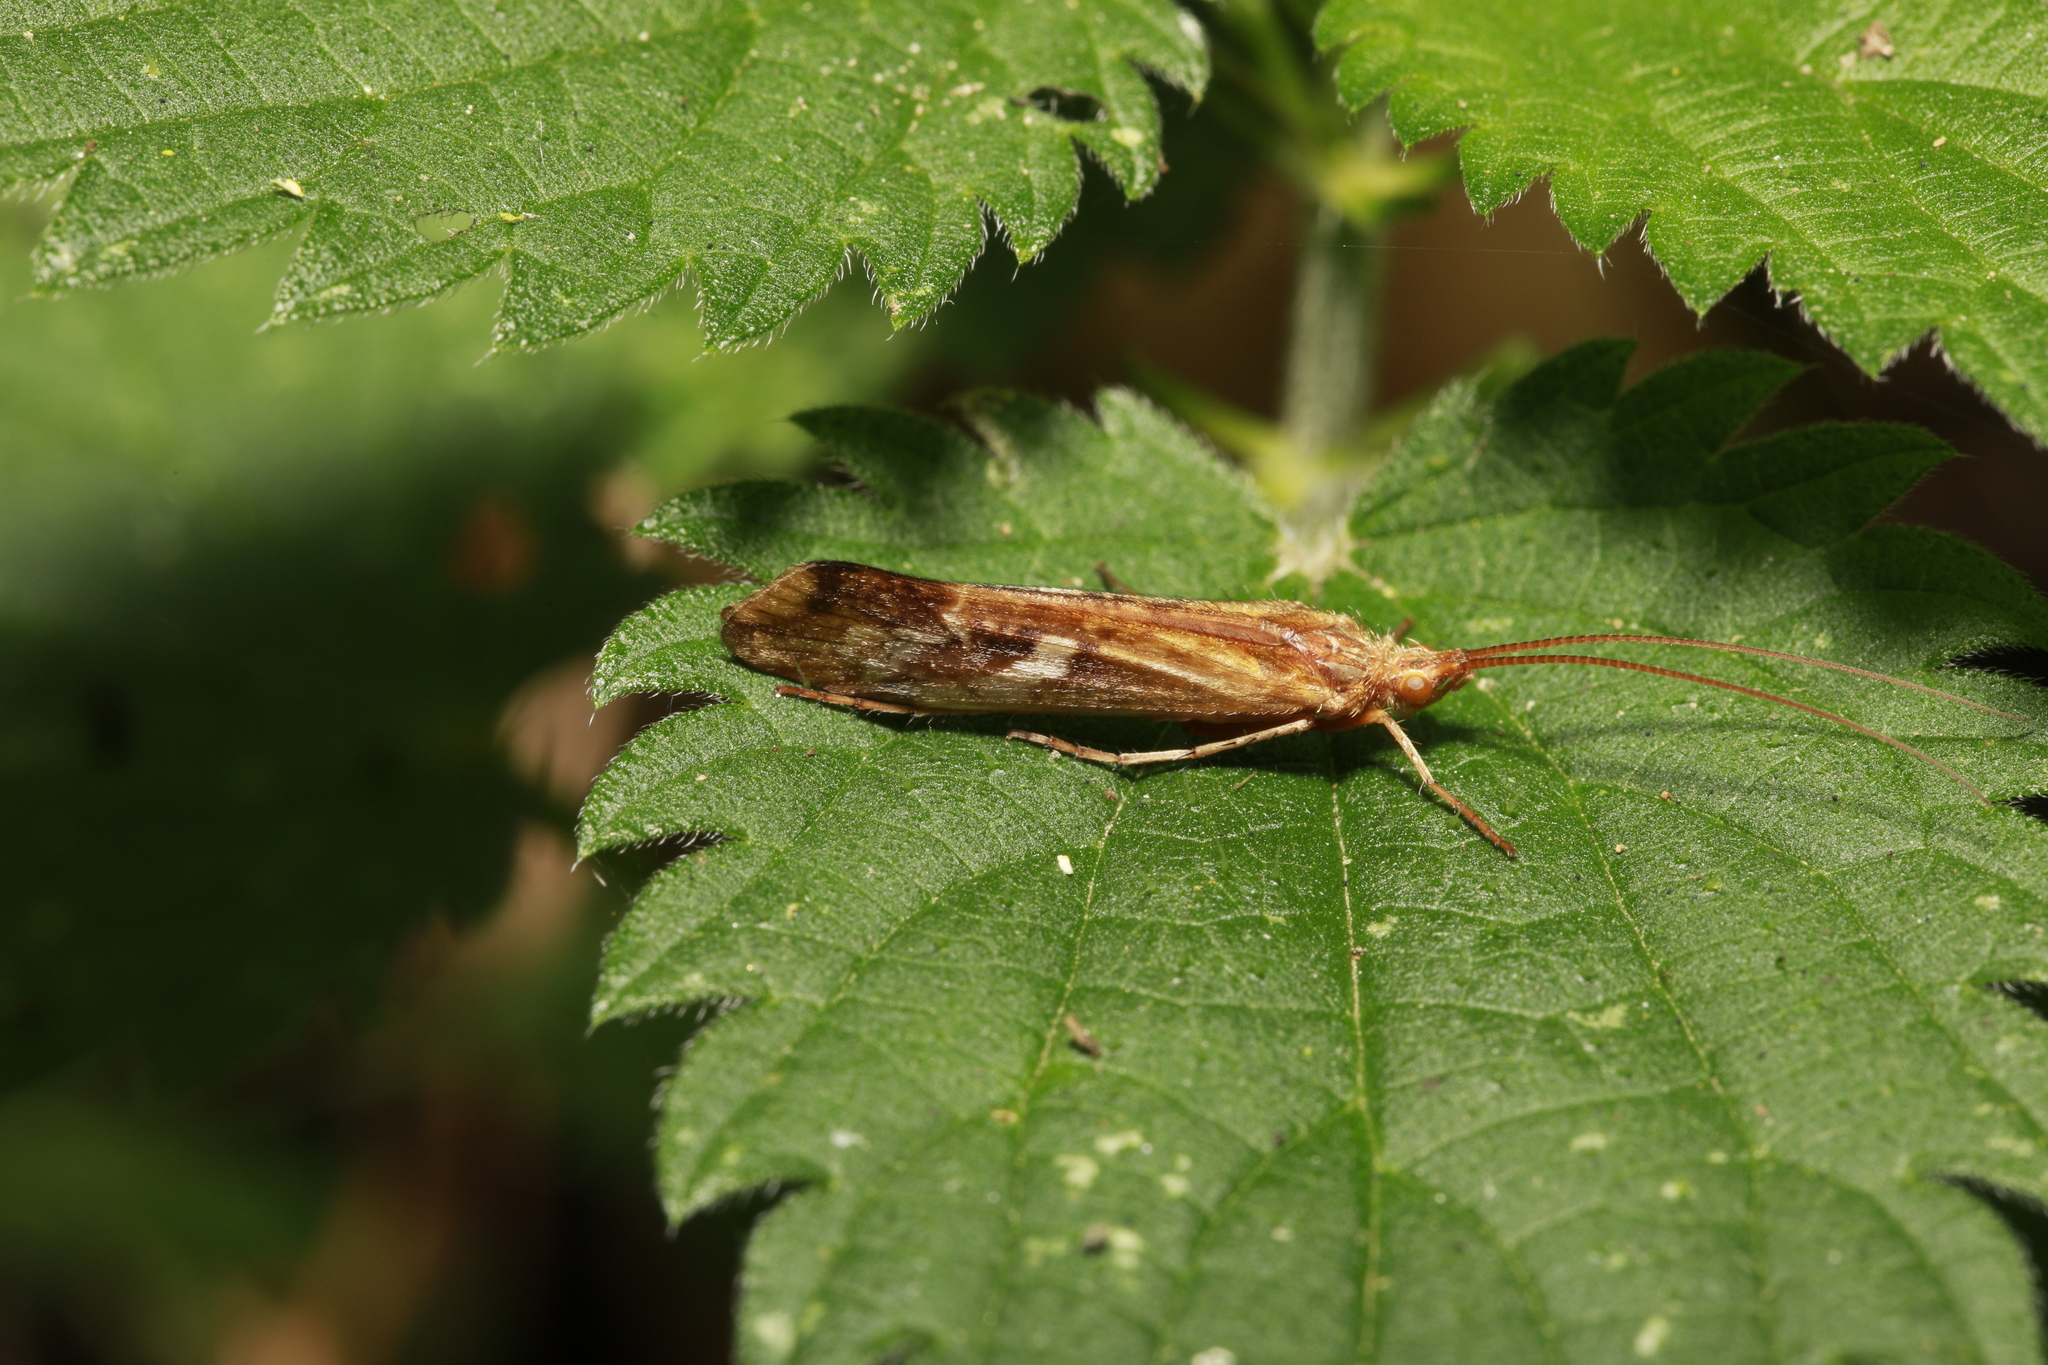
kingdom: Animalia
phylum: Arthropoda
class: Insecta
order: Trichoptera
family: Limnephilidae
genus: Limnephilus
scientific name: Limnephilus lunatus
